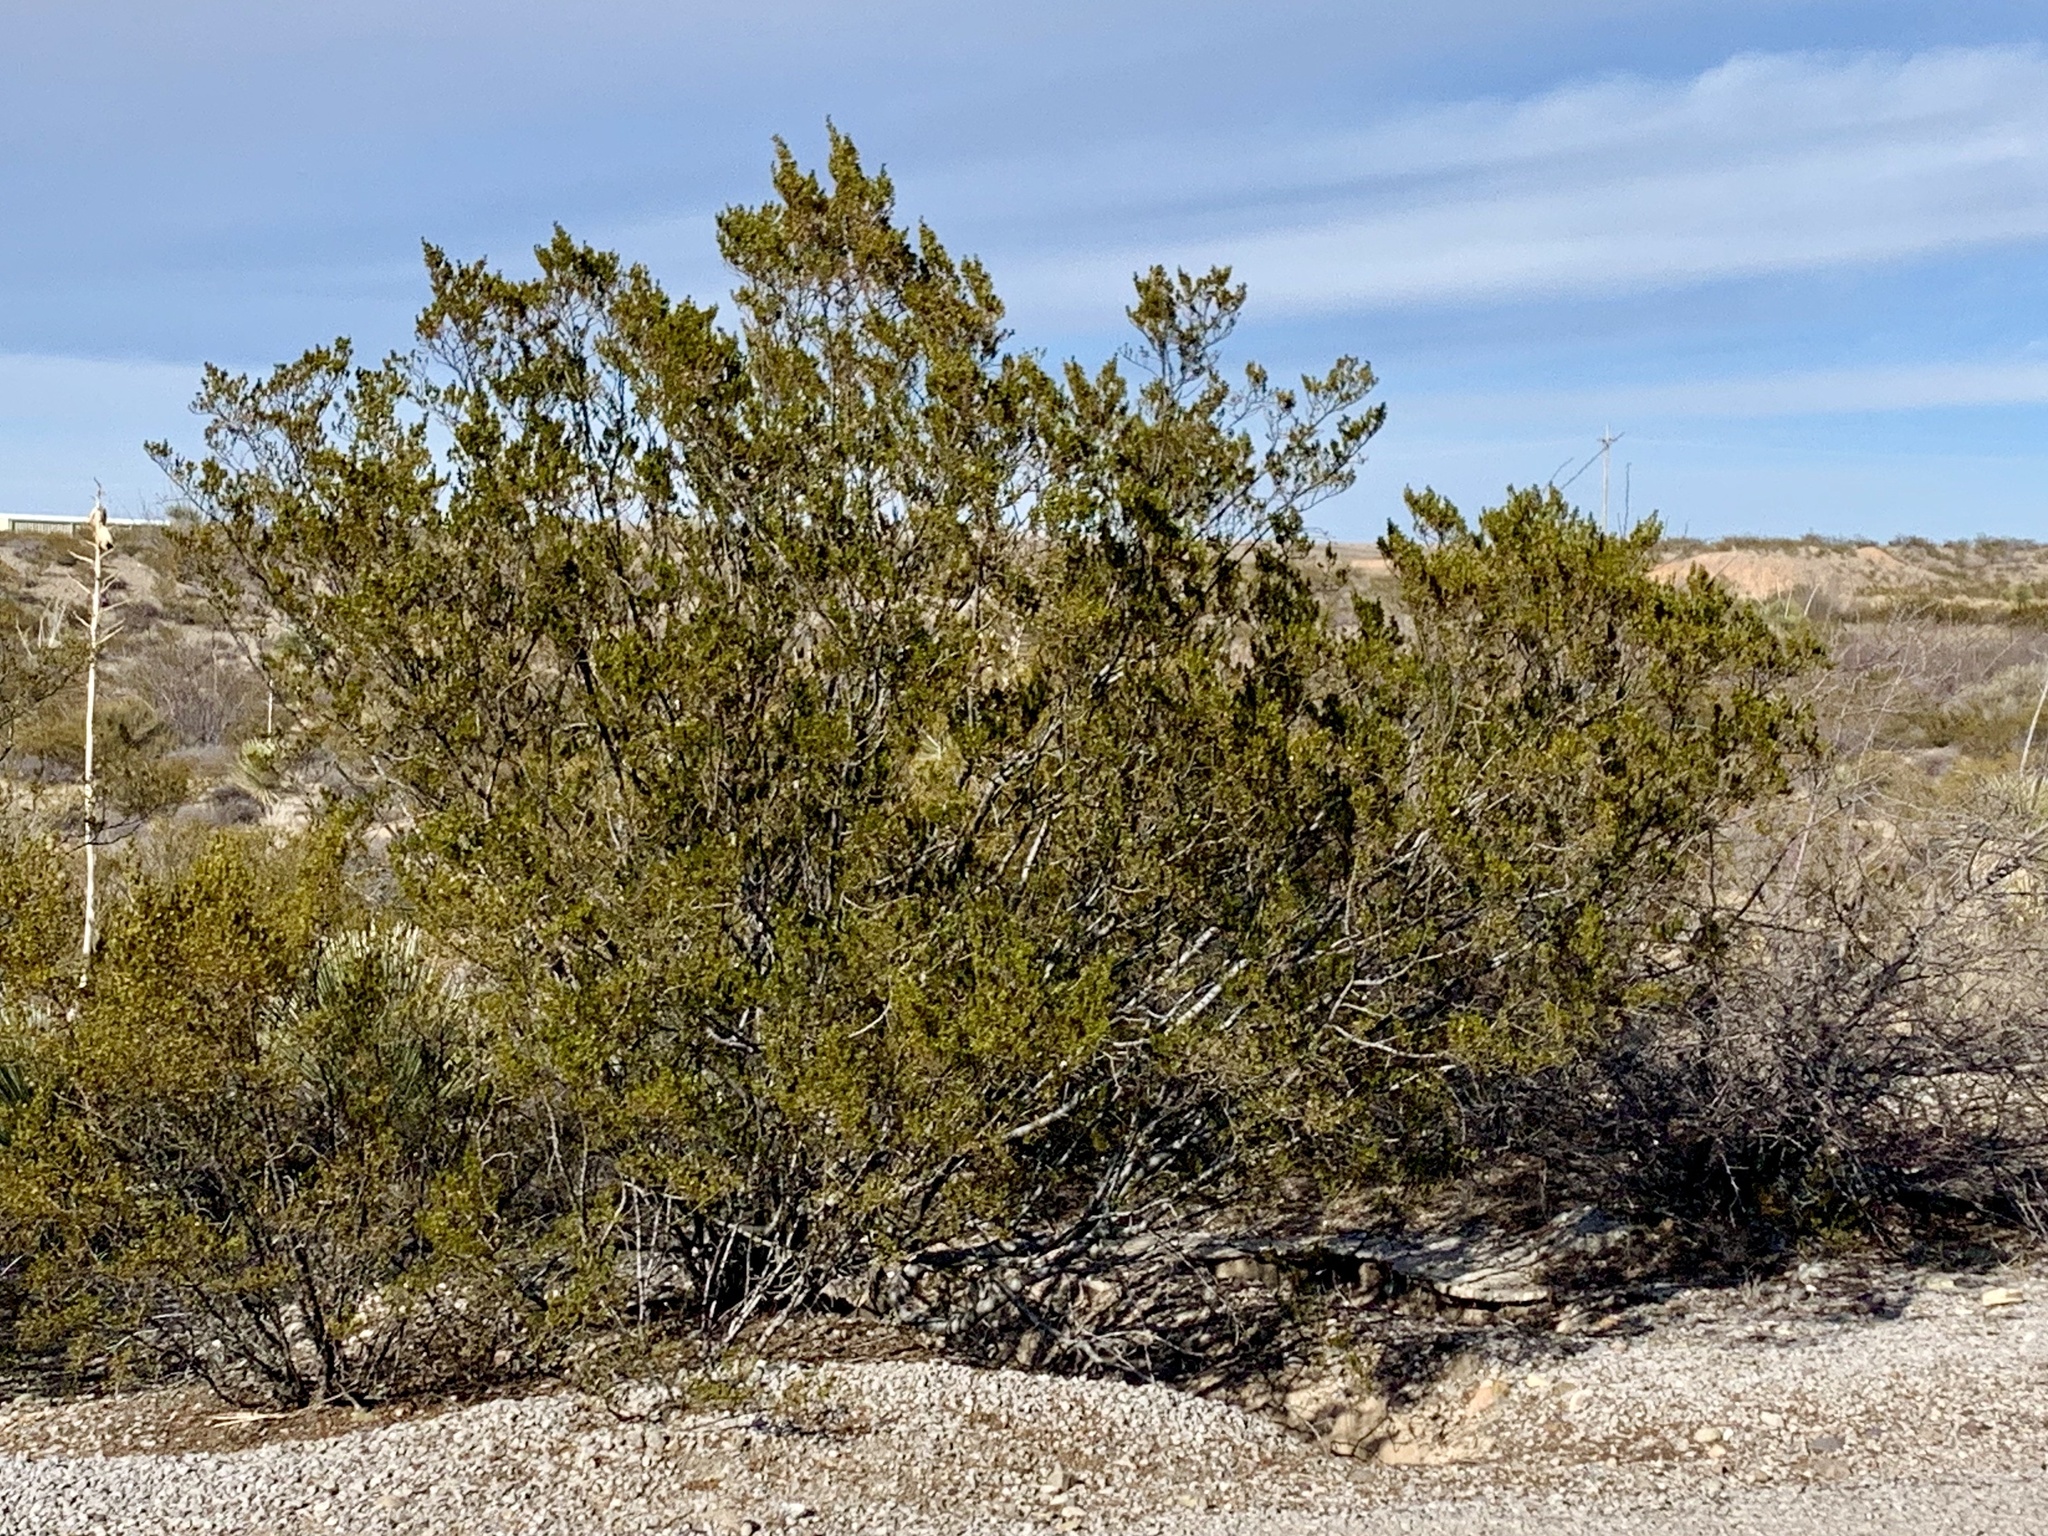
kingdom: Plantae
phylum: Tracheophyta
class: Magnoliopsida
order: Zygophyllales
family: Zygophyllaceae
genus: Larrea
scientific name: Larrea tridentata
